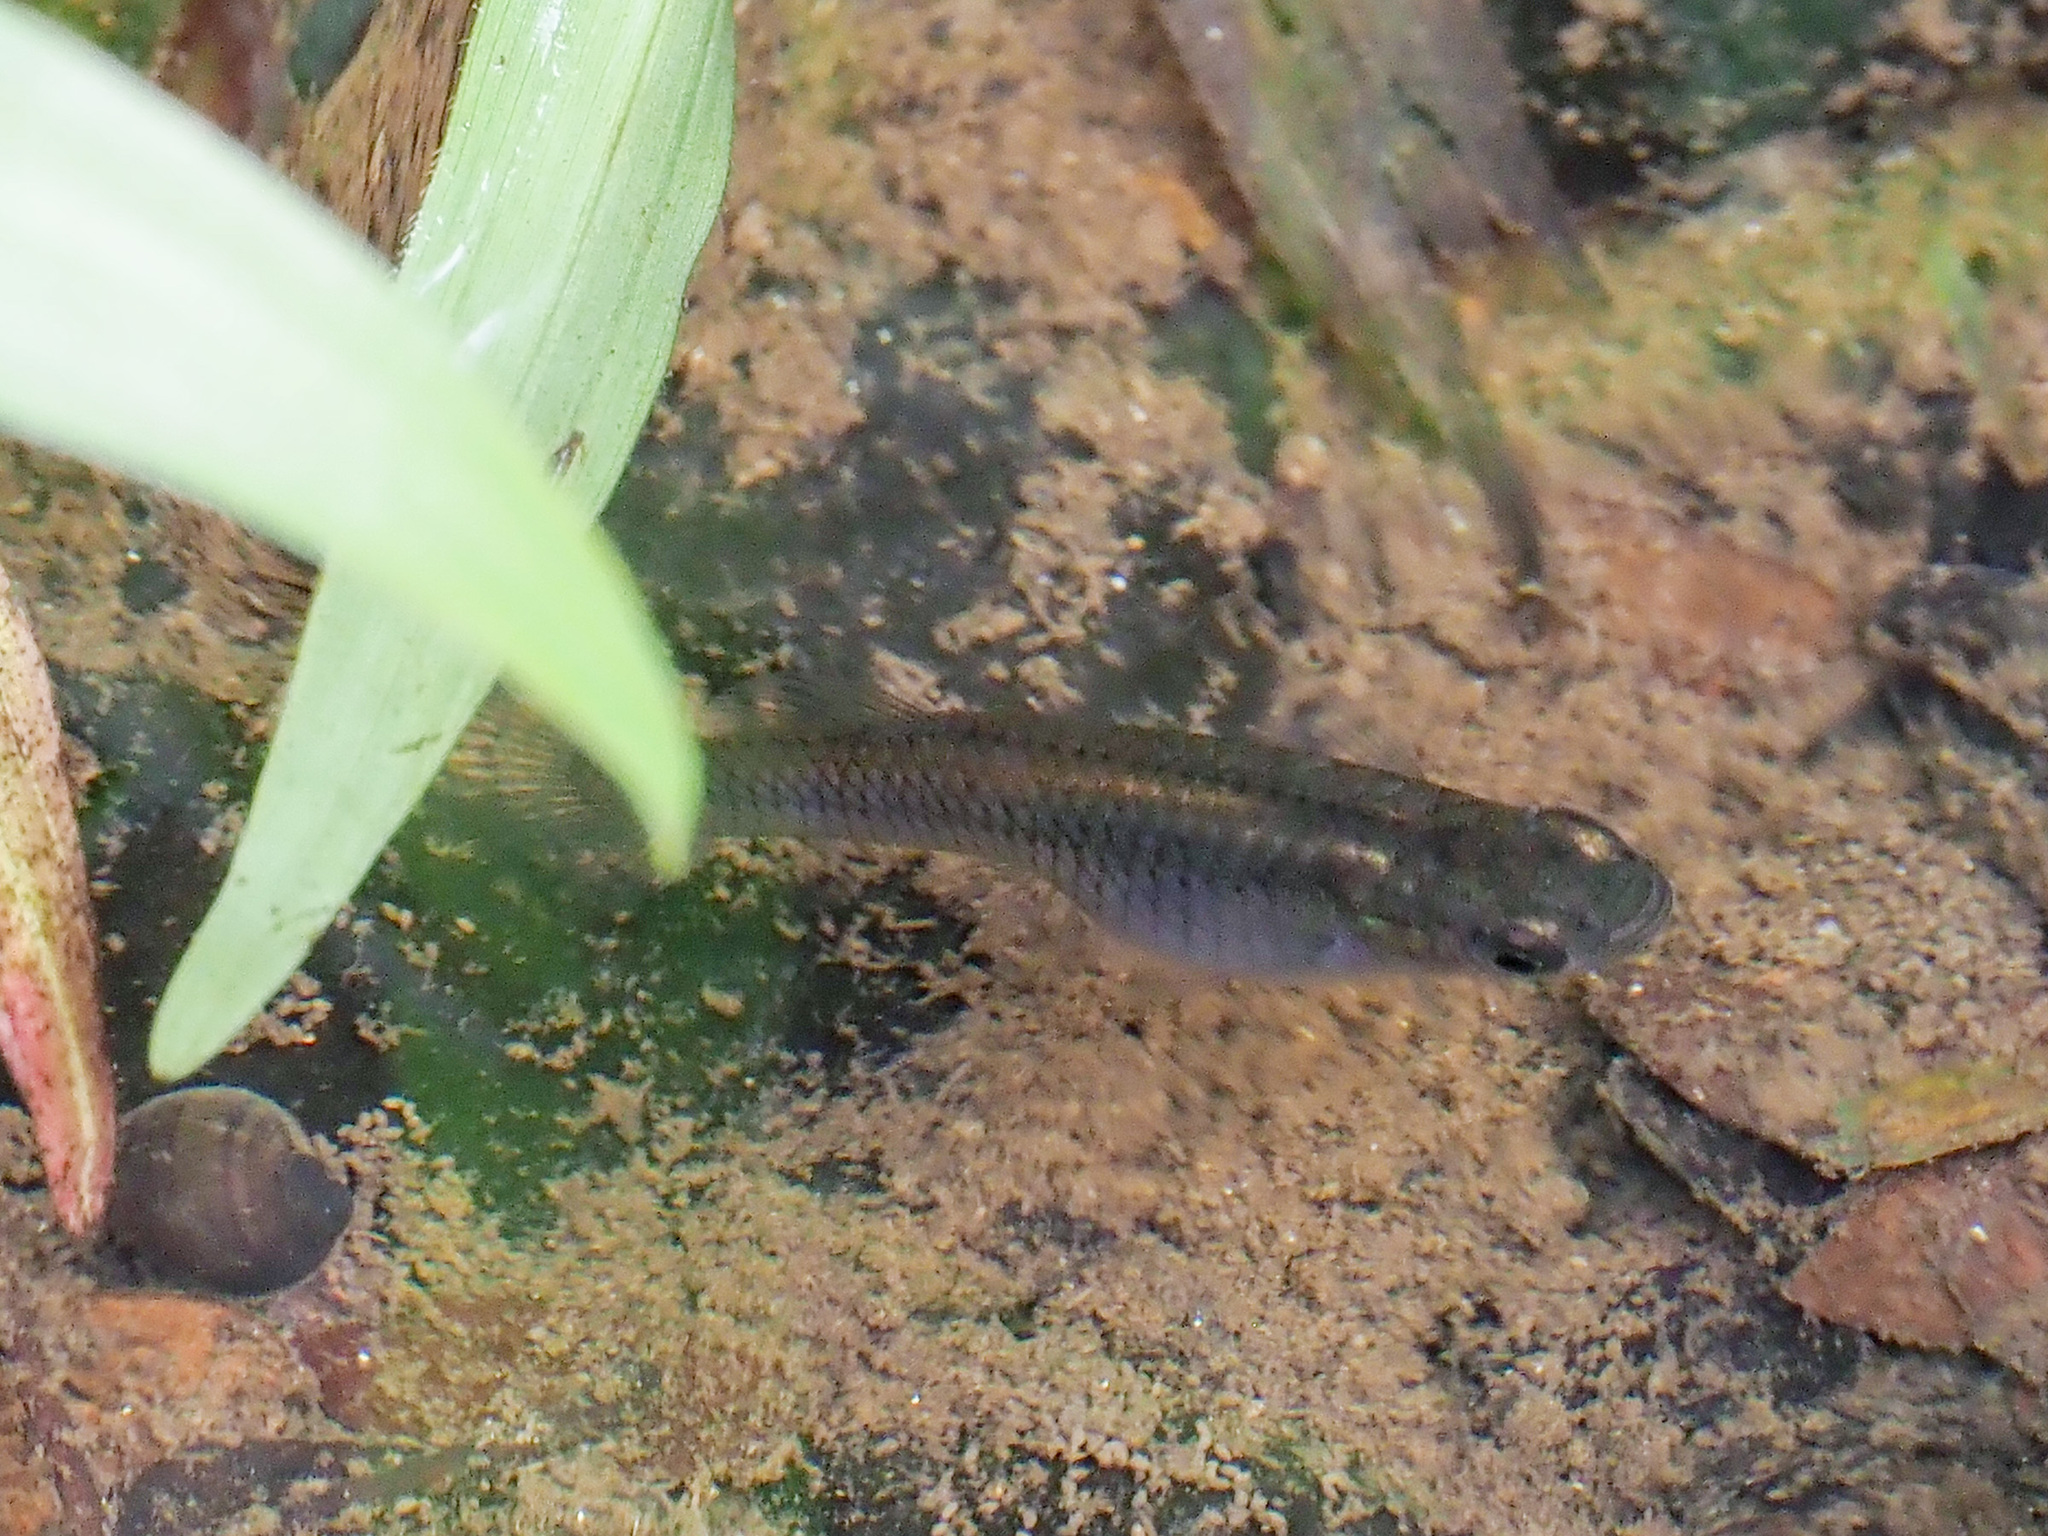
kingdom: Animalia
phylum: Chordata
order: Cyprinodontiformes
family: Poeciliidae
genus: Gambusia
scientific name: Gambusia affinis
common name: Mosquitofish
